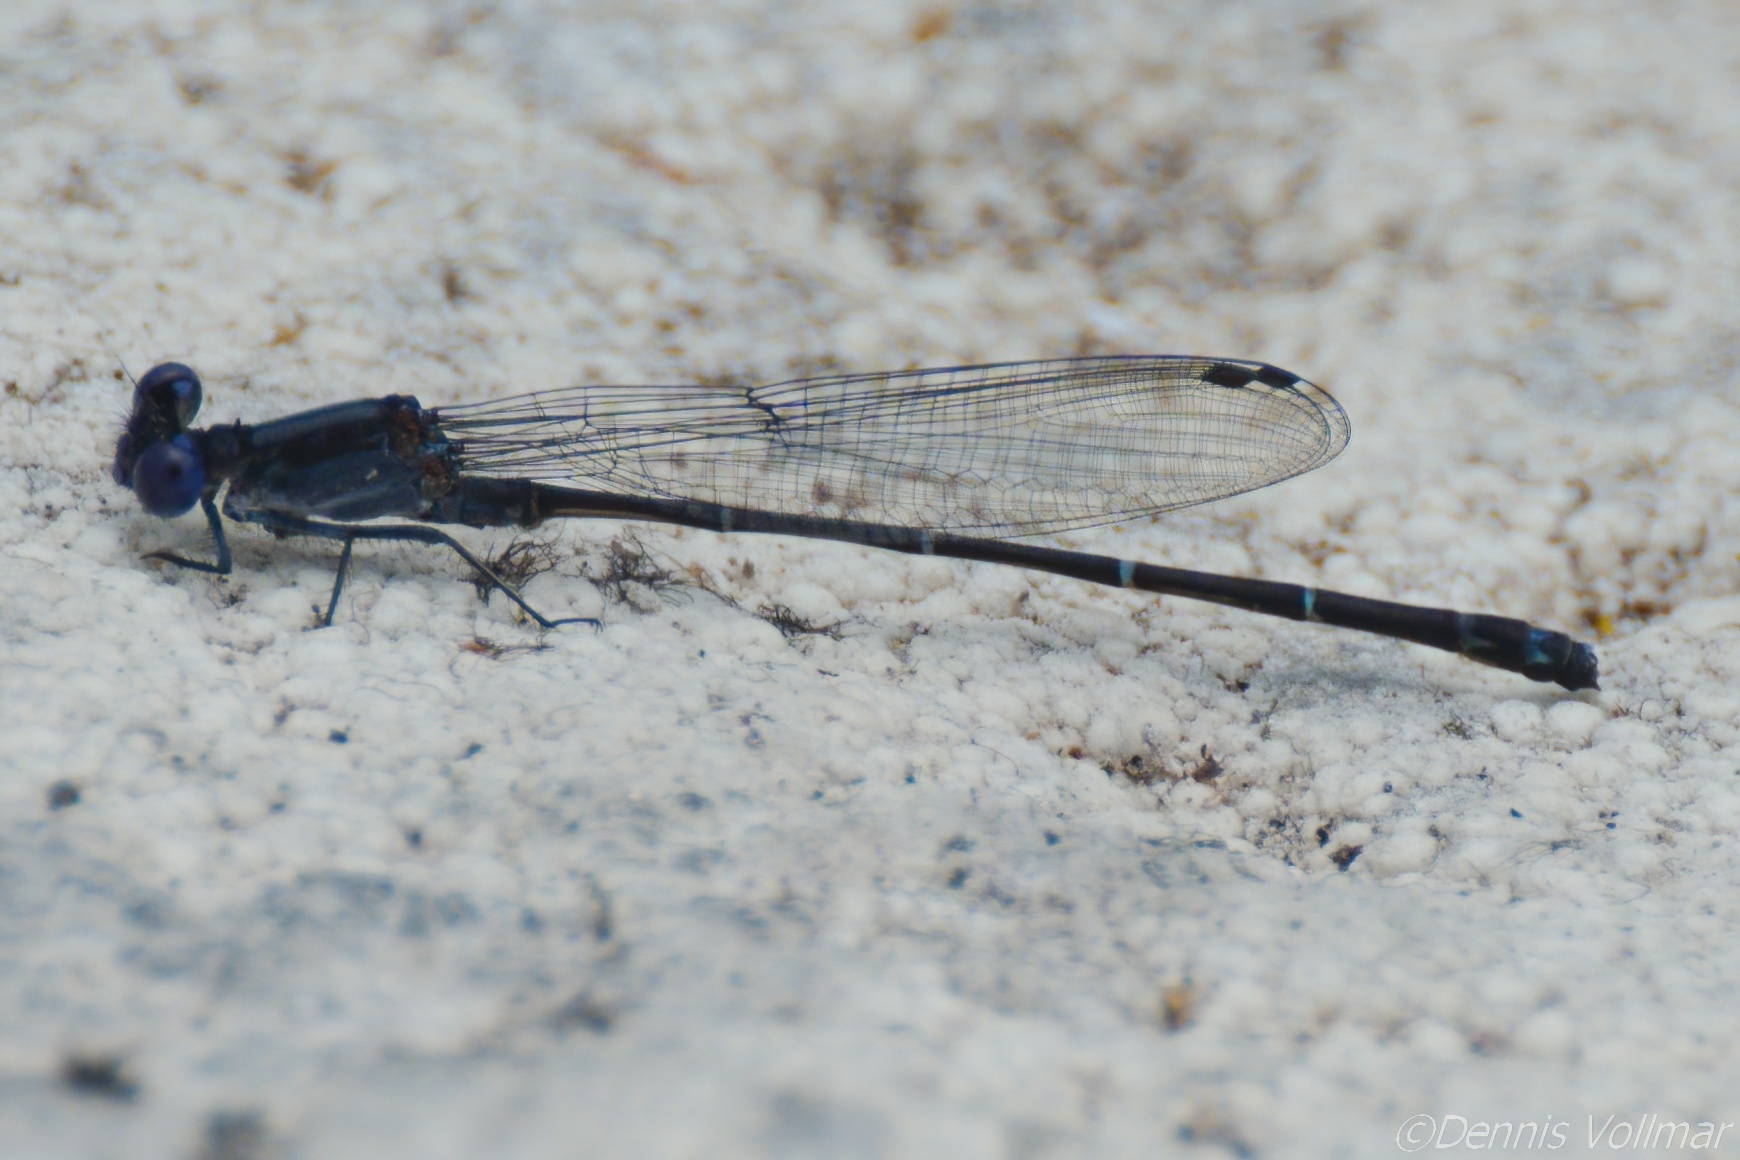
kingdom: Animalia
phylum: Arthropoda
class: Insecta
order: Odonata
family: Coenagrionidae
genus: Argia
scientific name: Argia translata
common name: Dusky dancer
